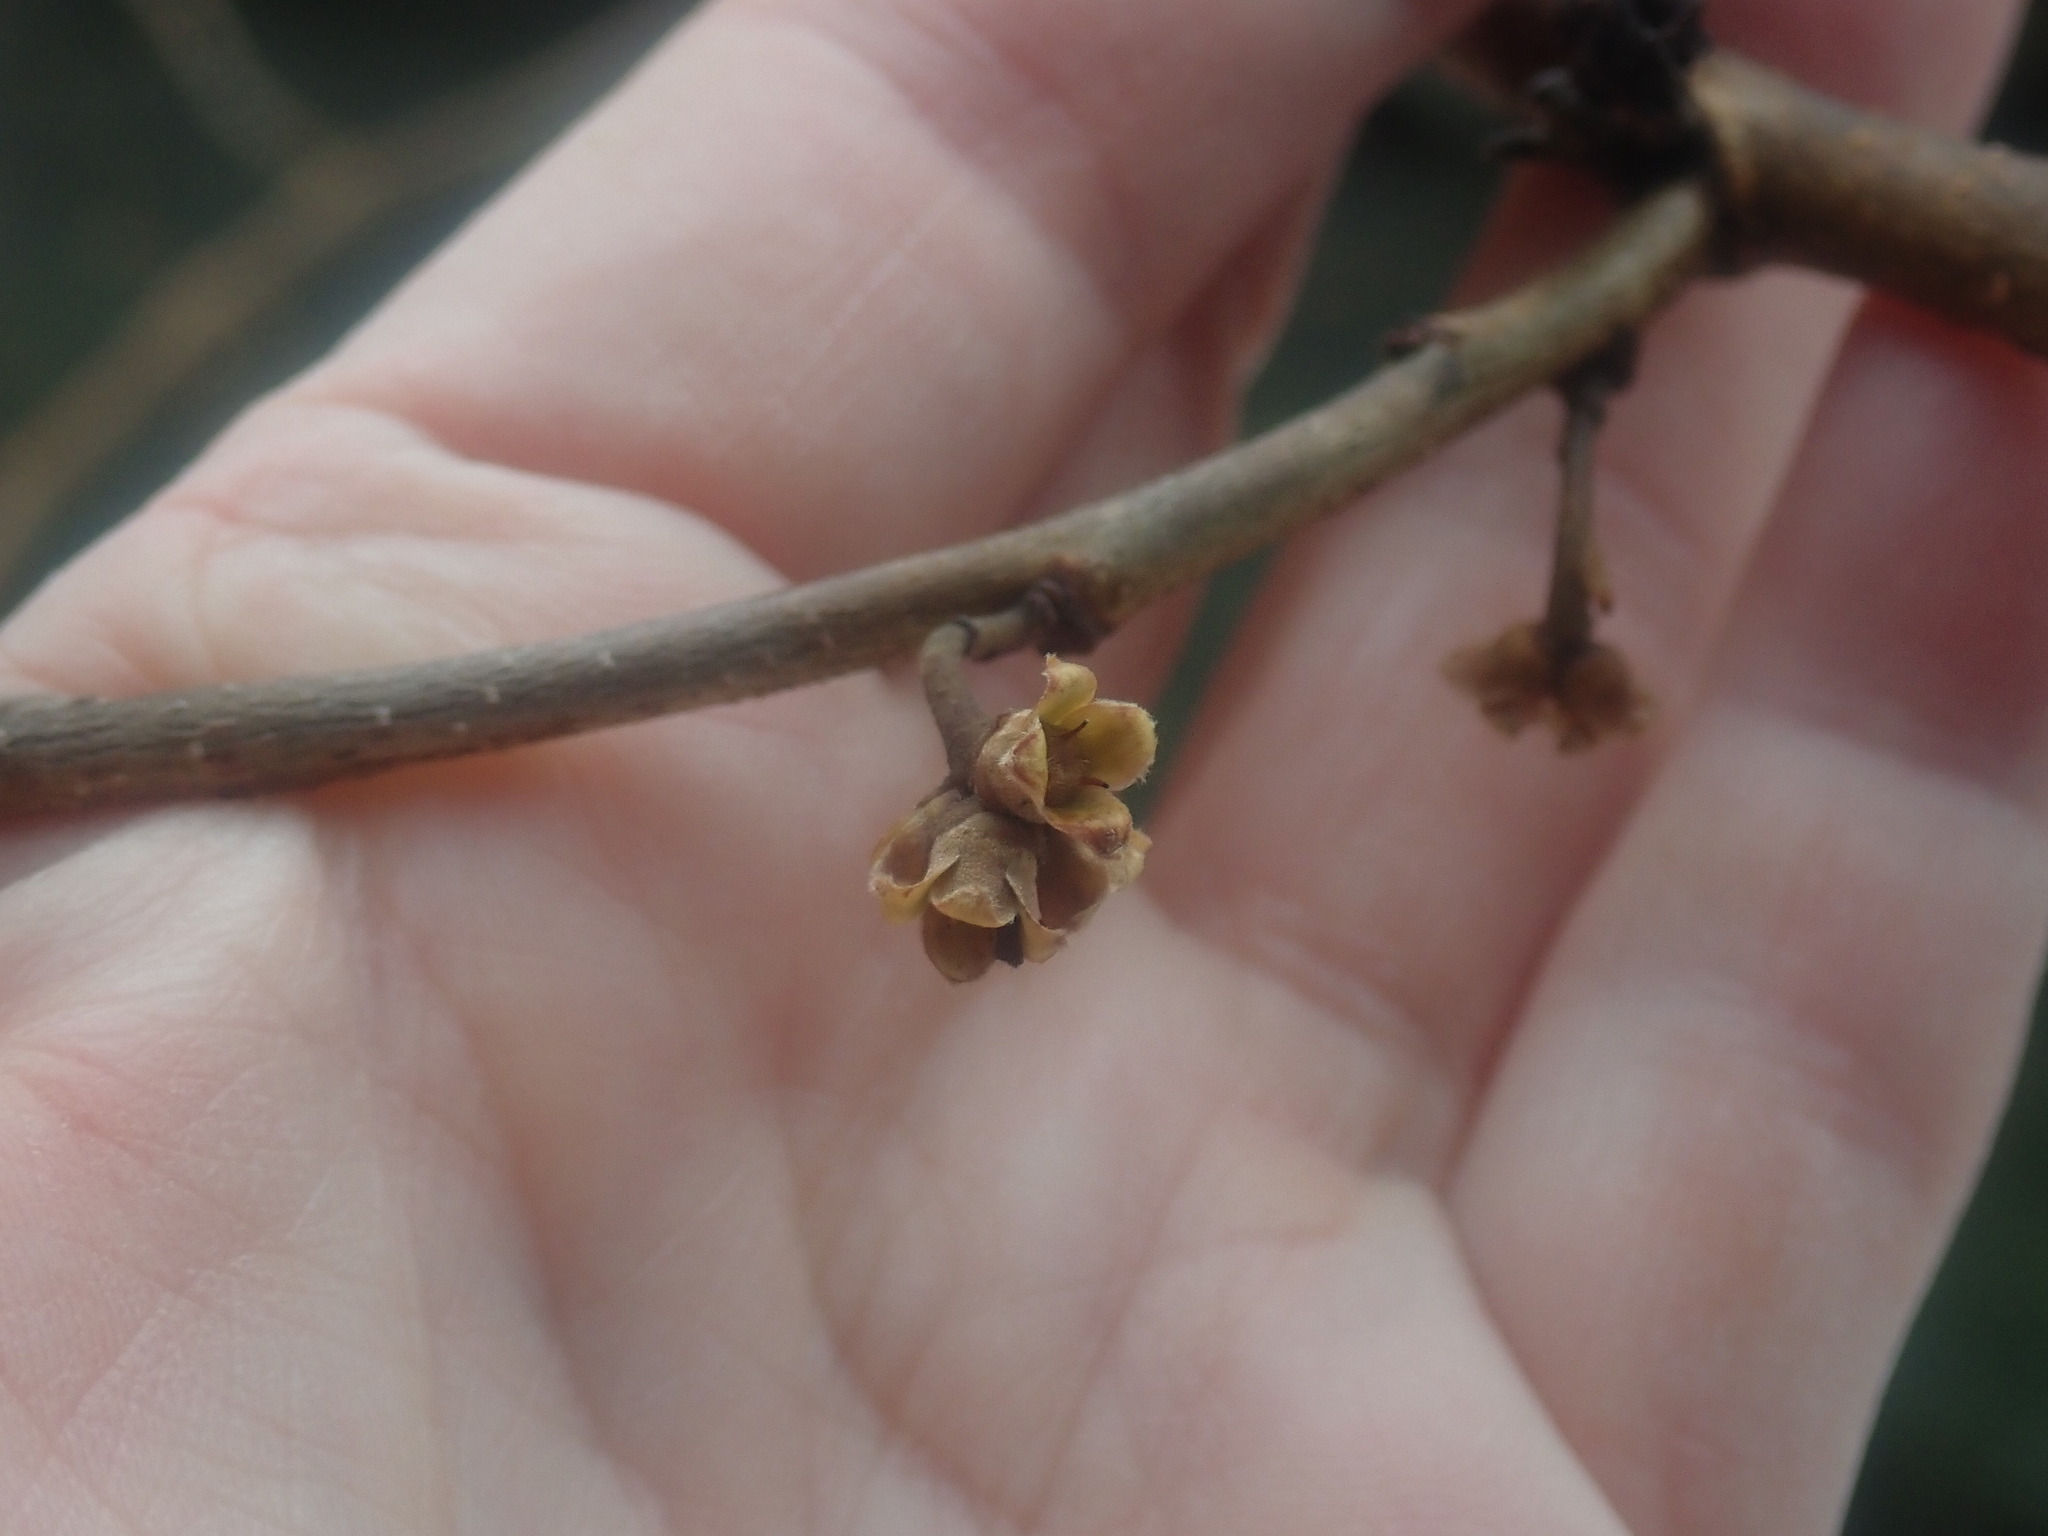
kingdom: Plantae
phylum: Tracheophyta
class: Magnoliopsida
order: Saxifragales
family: Hamamelidaceae
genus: Hamamelis
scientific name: Hamamelis virginiana
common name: Witch-hazel
